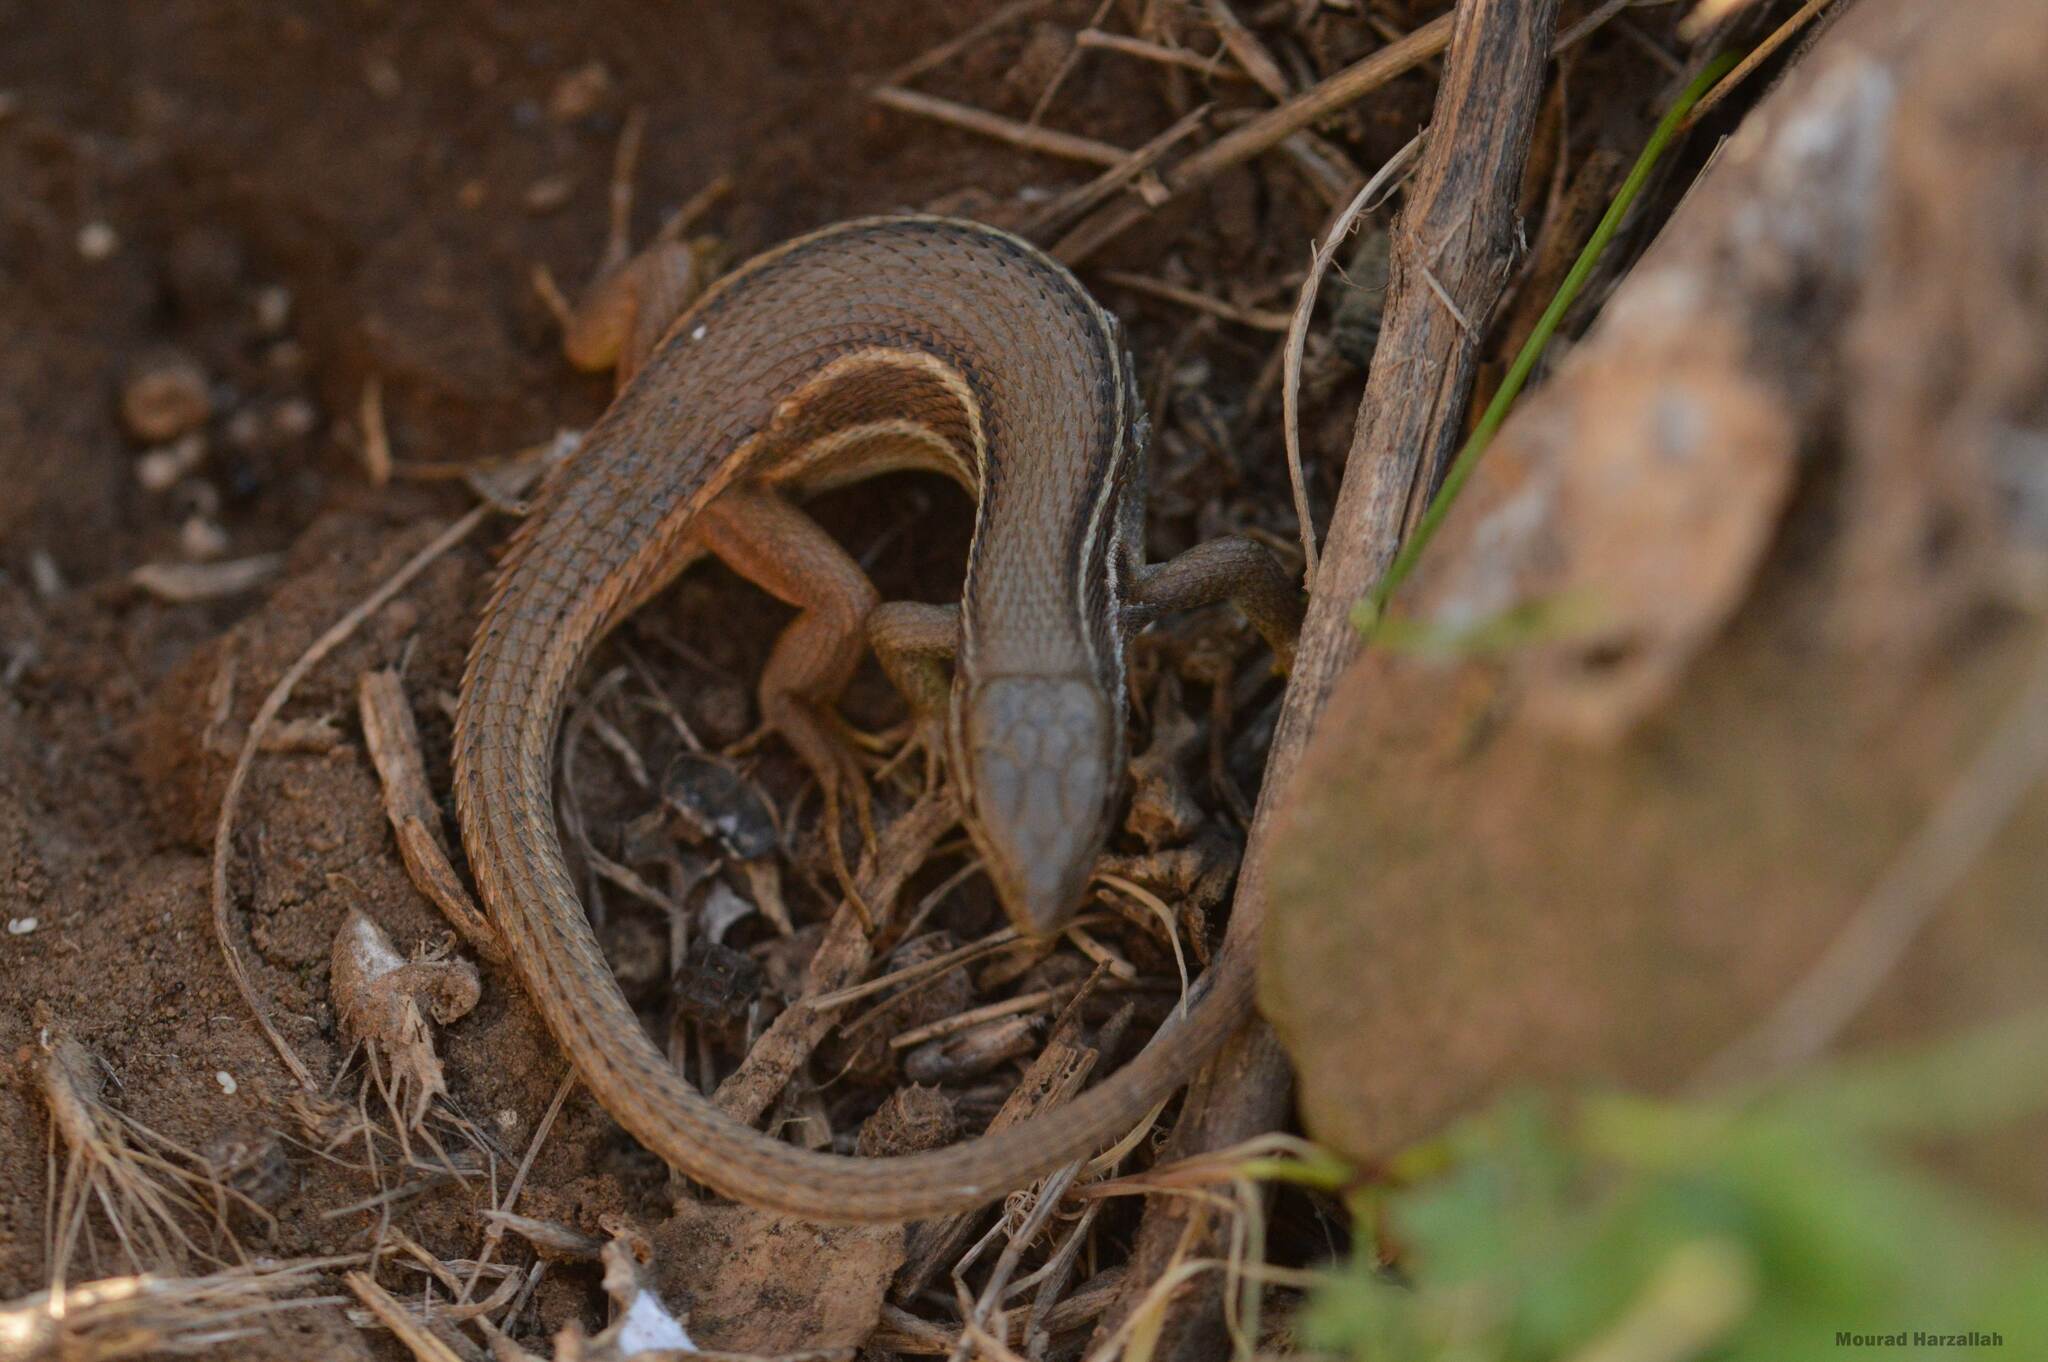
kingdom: Animalia
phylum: Chordata
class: Squamata
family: Lacertidae
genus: Psammodromus
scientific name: Psammodromus algirus
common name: Algerian psammodromus
